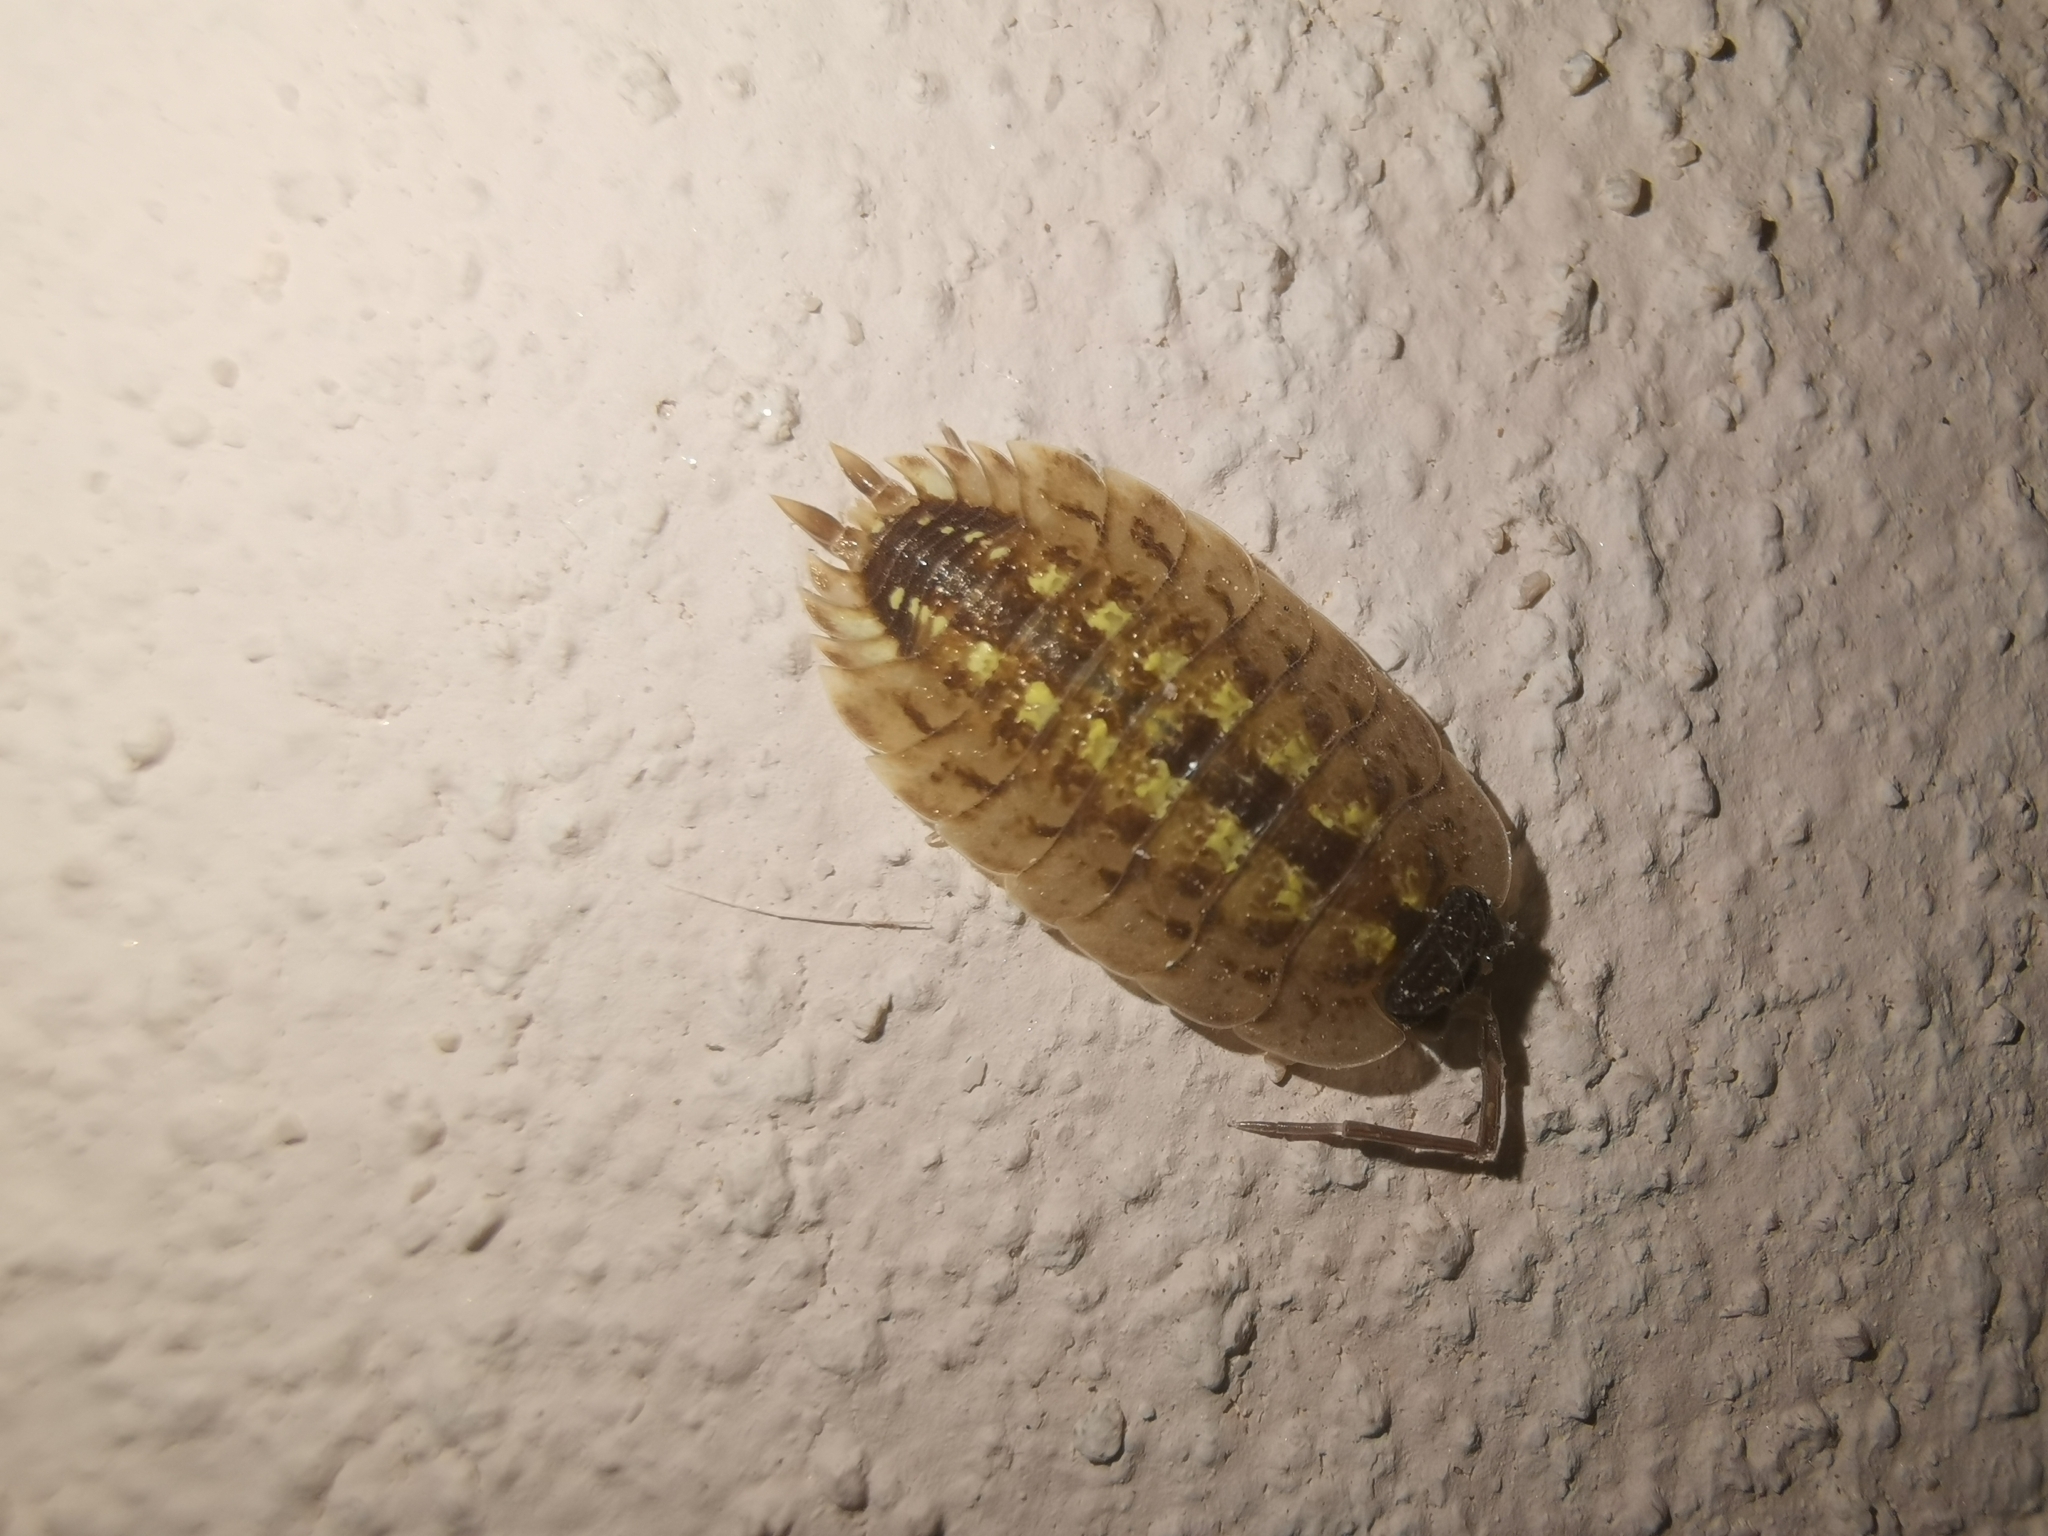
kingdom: Animalia
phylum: Arthropoda
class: Malacostraca
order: Isopoda
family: Porcellionidae
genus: Porcellio
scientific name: Porcellio spinicornis
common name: Painted woodlouse
